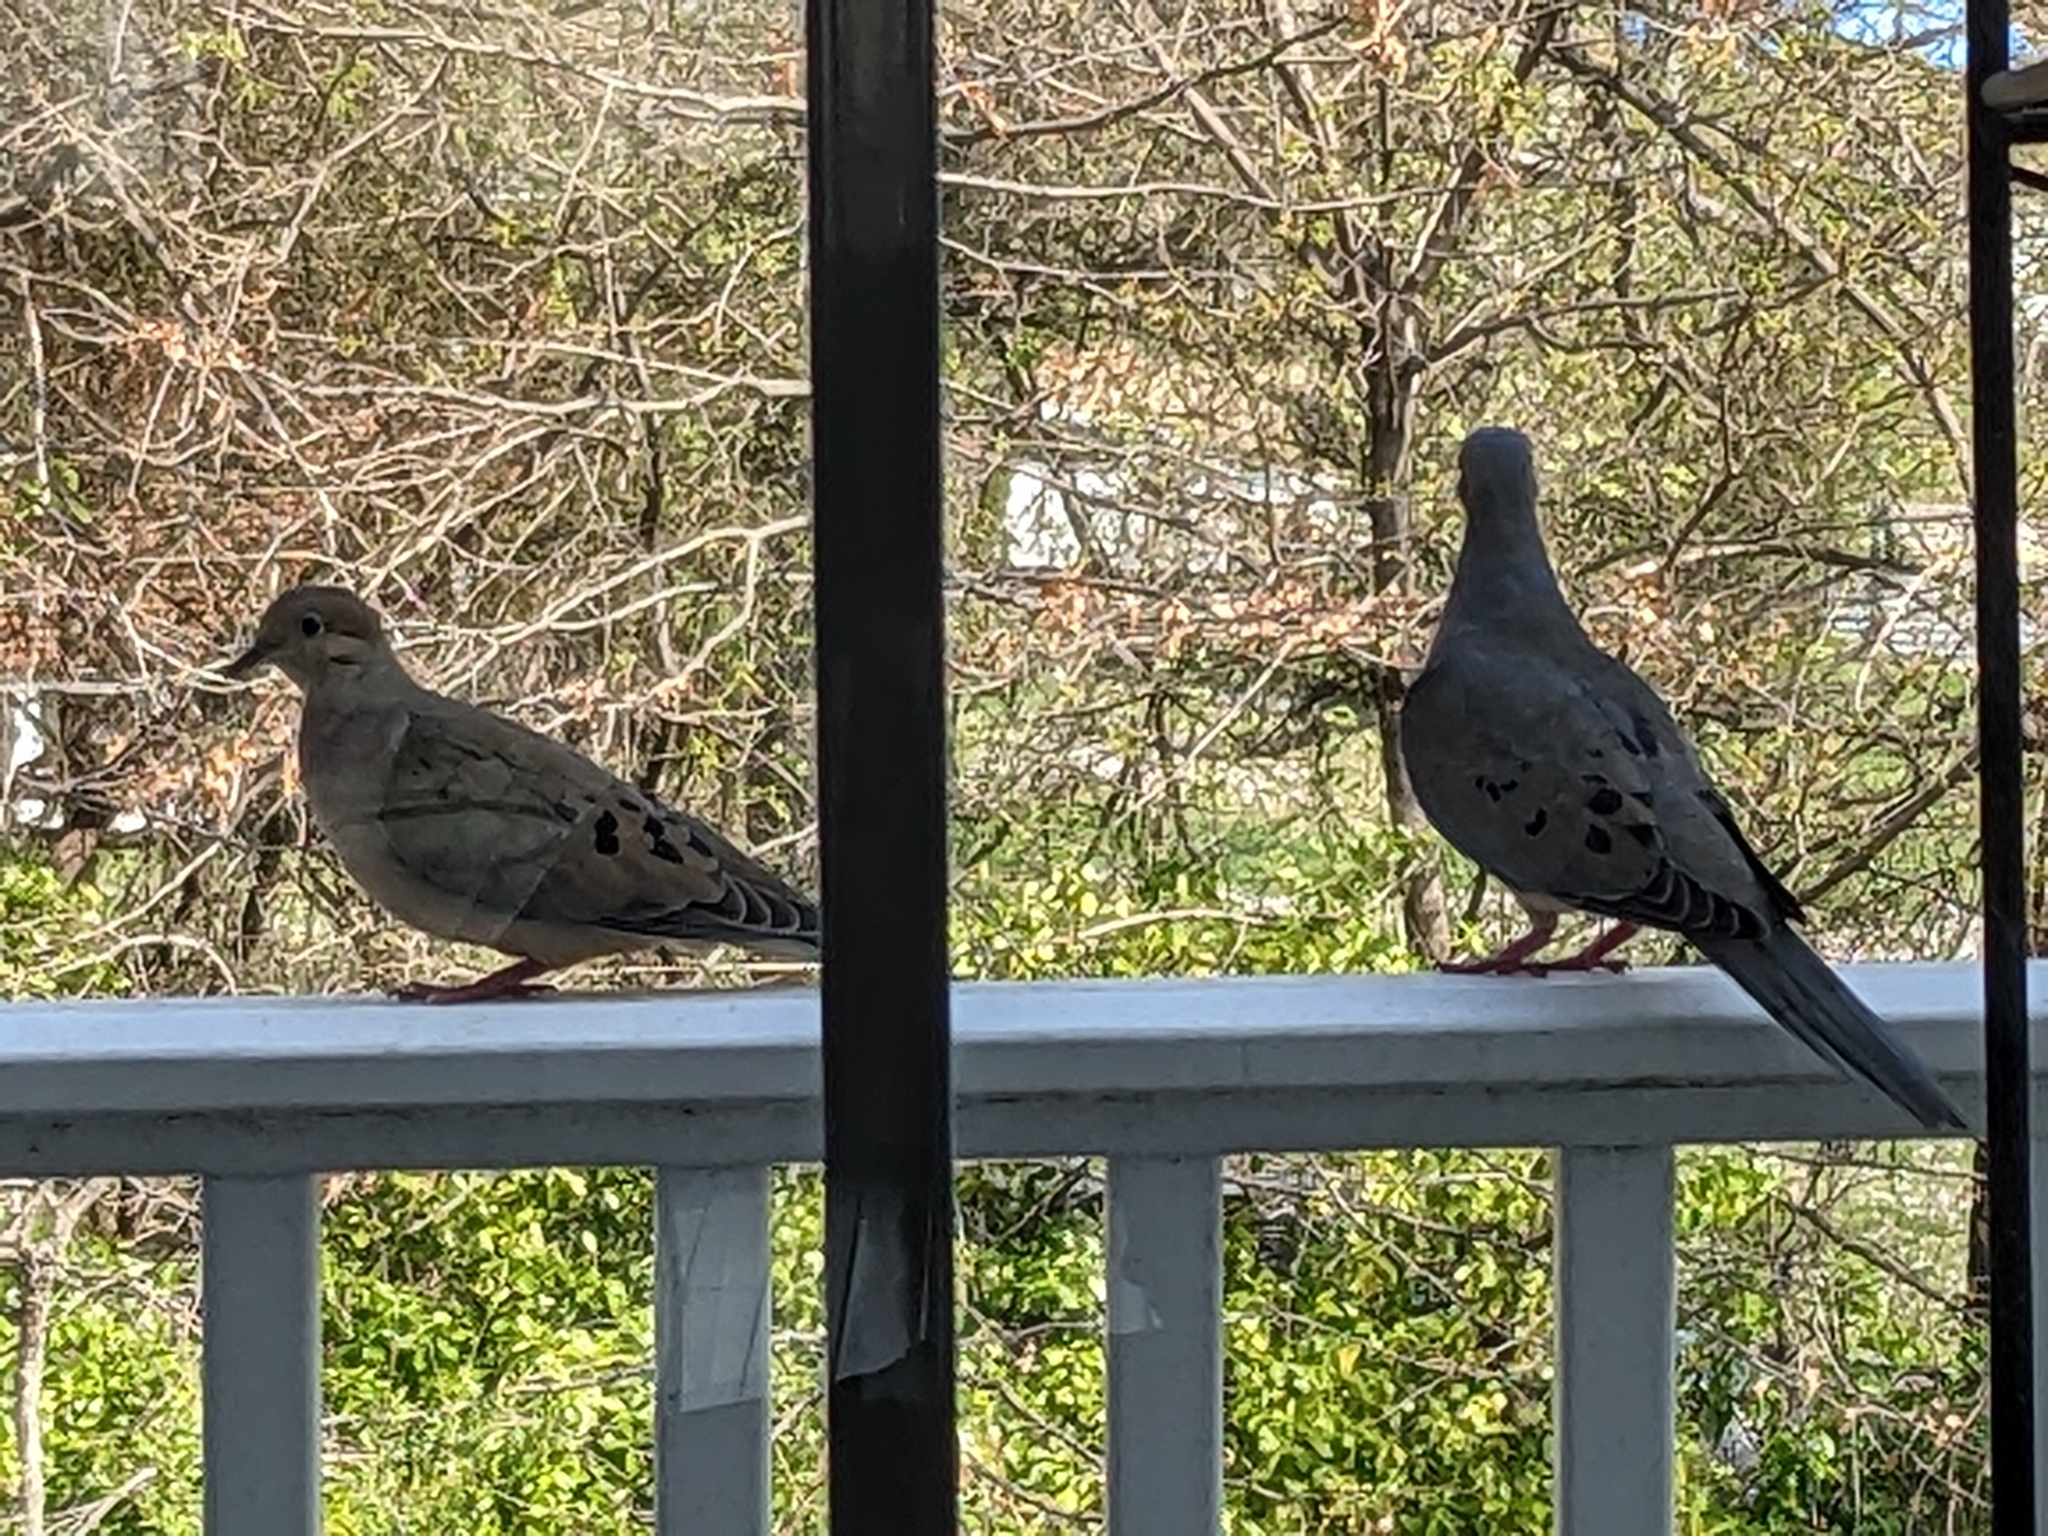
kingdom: Animalia
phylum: Chordata
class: Aves
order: Columbiformes
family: Columbidae
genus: Zenaida
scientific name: Zenaida macroura
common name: Mourning dove
